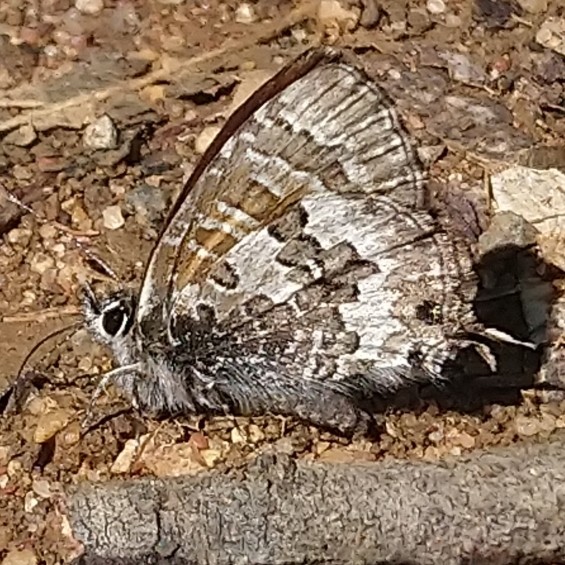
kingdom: Animalia
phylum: Arthropoda
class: Insecta
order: Lepidoptera
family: Lycaenidae
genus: Cupido
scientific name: Cupido nubifer
